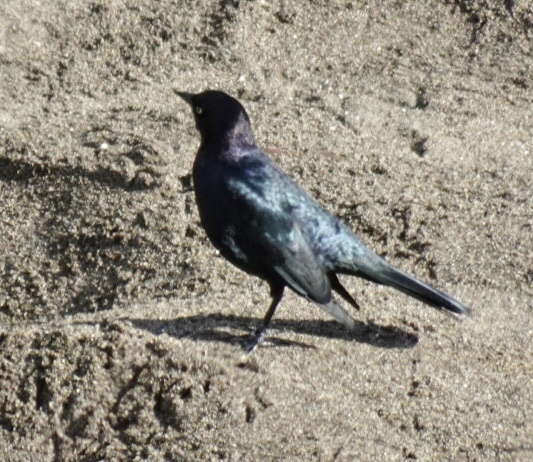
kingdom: Animalia
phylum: Chordata
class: Aves
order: Passeriformes
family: Icteridae
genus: Euphagus
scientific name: Euphagus cyanocephalus
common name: Brewer's blackbird
